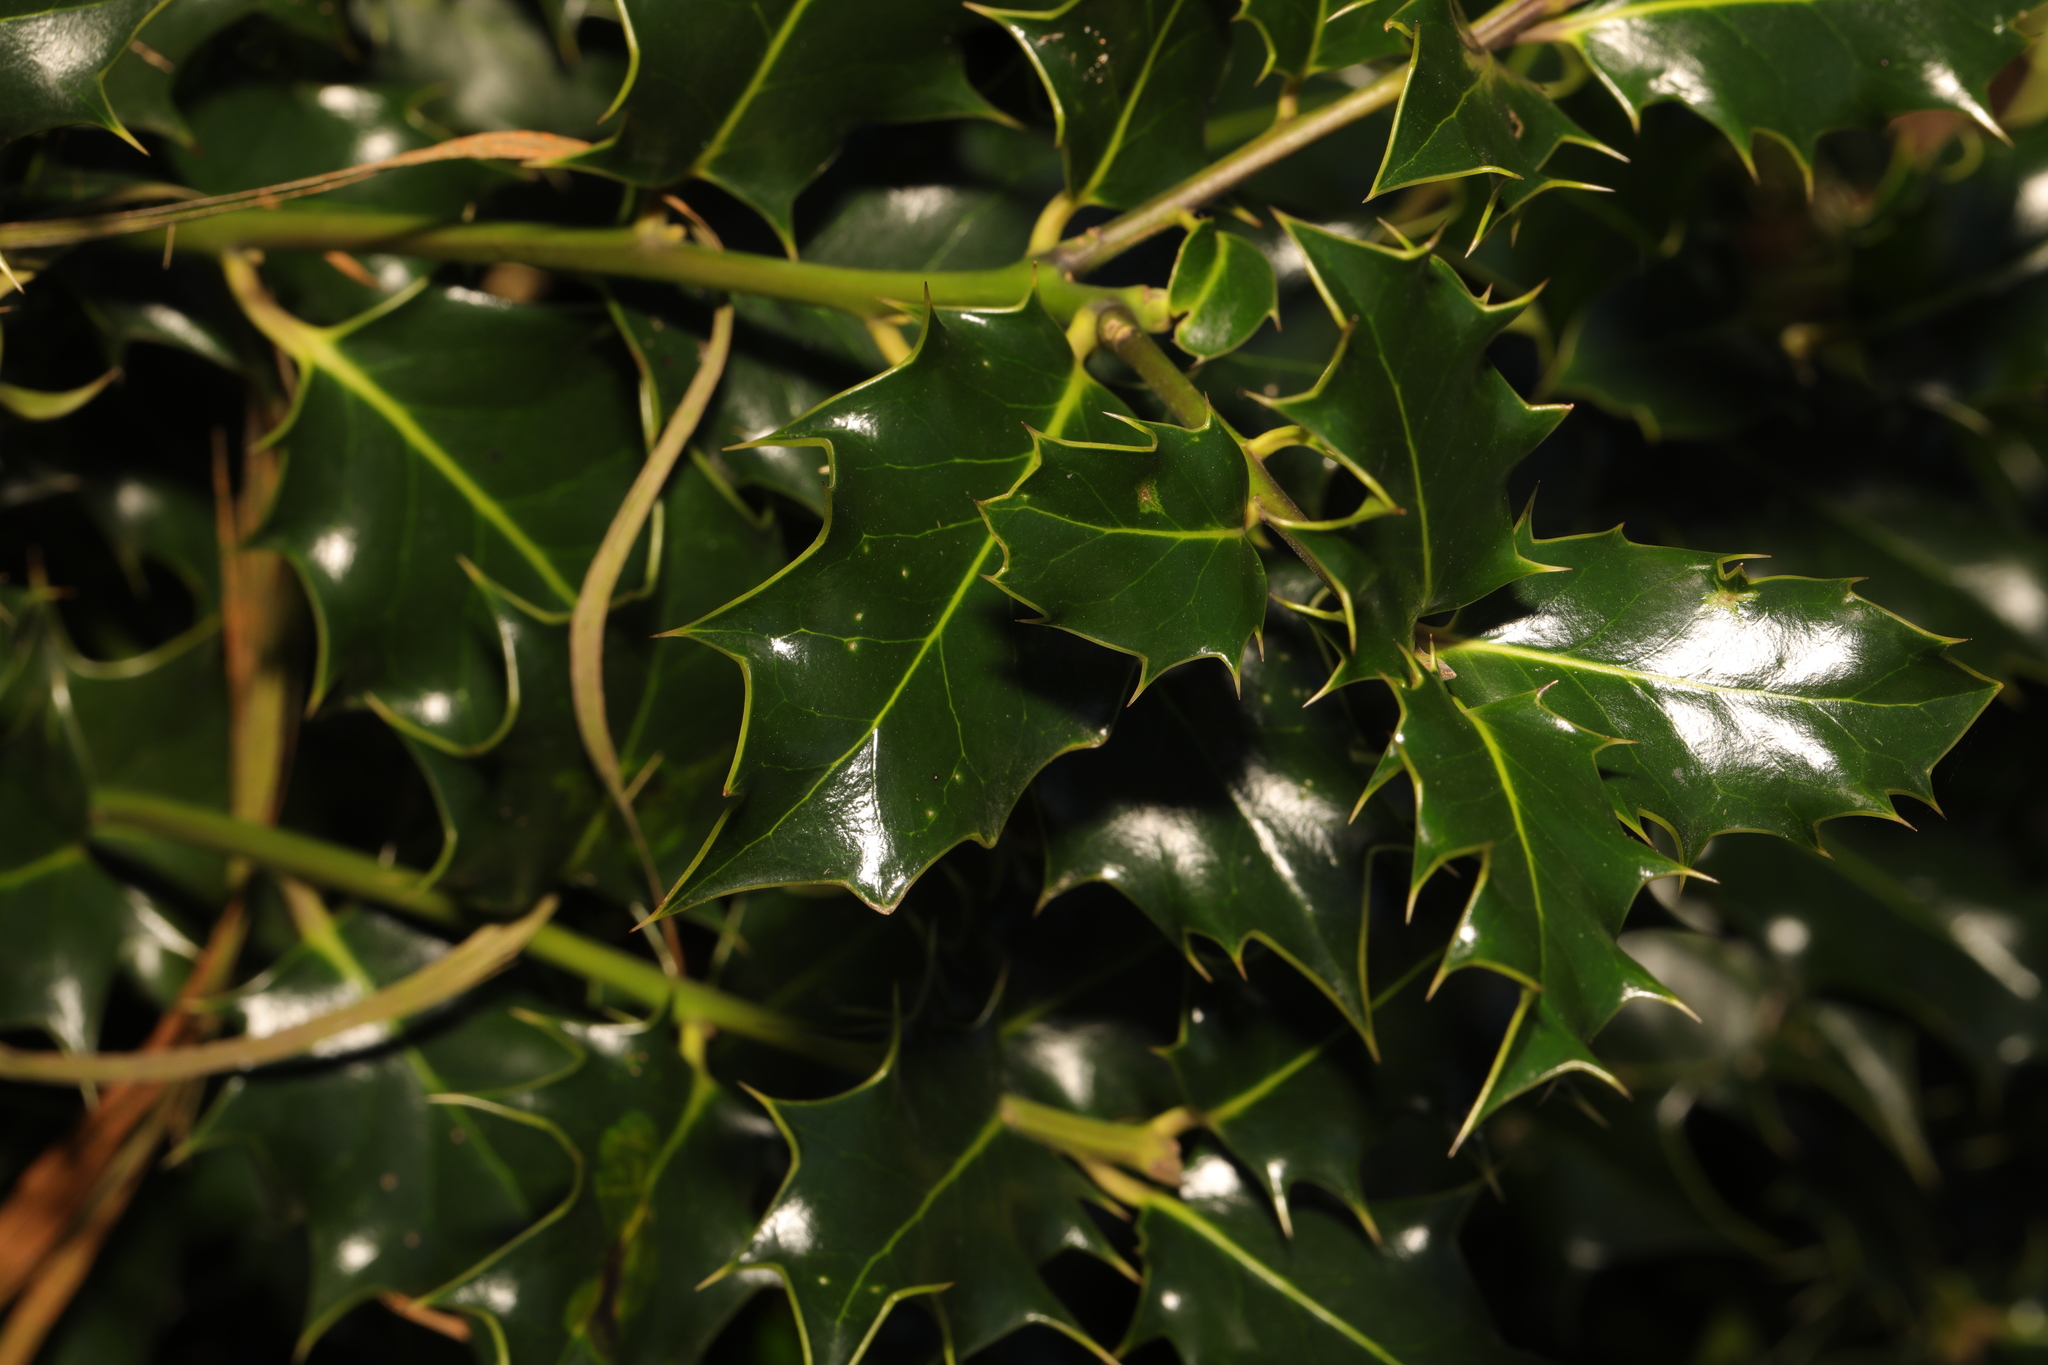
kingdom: Plantae
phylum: Tracheophyta
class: Magnoliopsida
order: Aquifoliales
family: Aquifoliaceae
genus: Ilex
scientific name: Ilex aquifolium
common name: English holly
